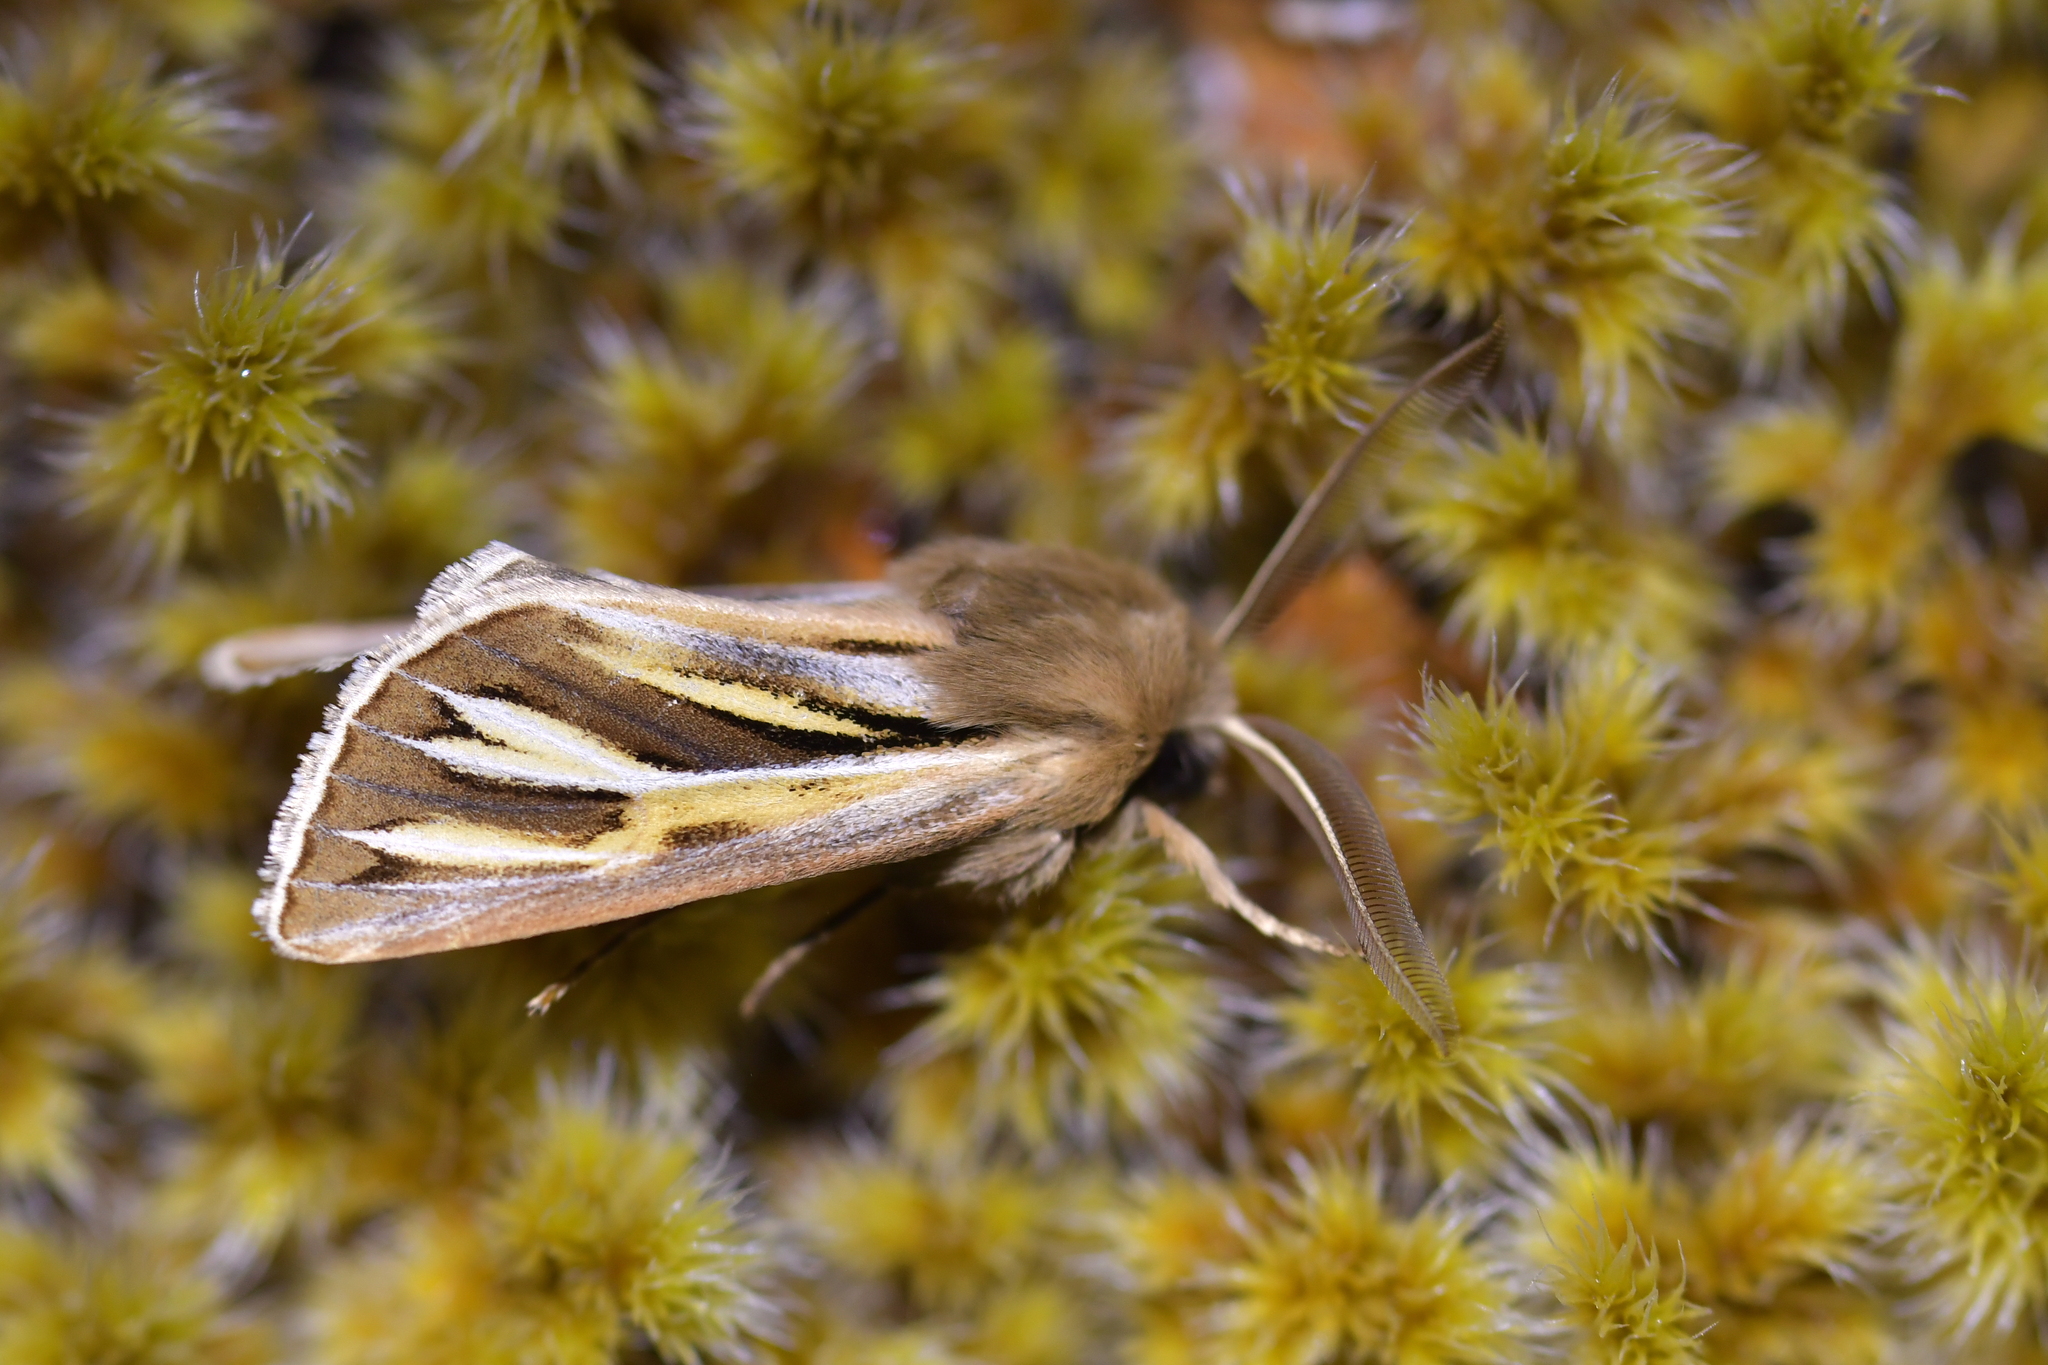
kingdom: Animalia
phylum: Arthropoda
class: Insecta
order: Lepidoptera
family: Noctuidae
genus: Ichneutica
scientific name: Ichneutica caraunias
